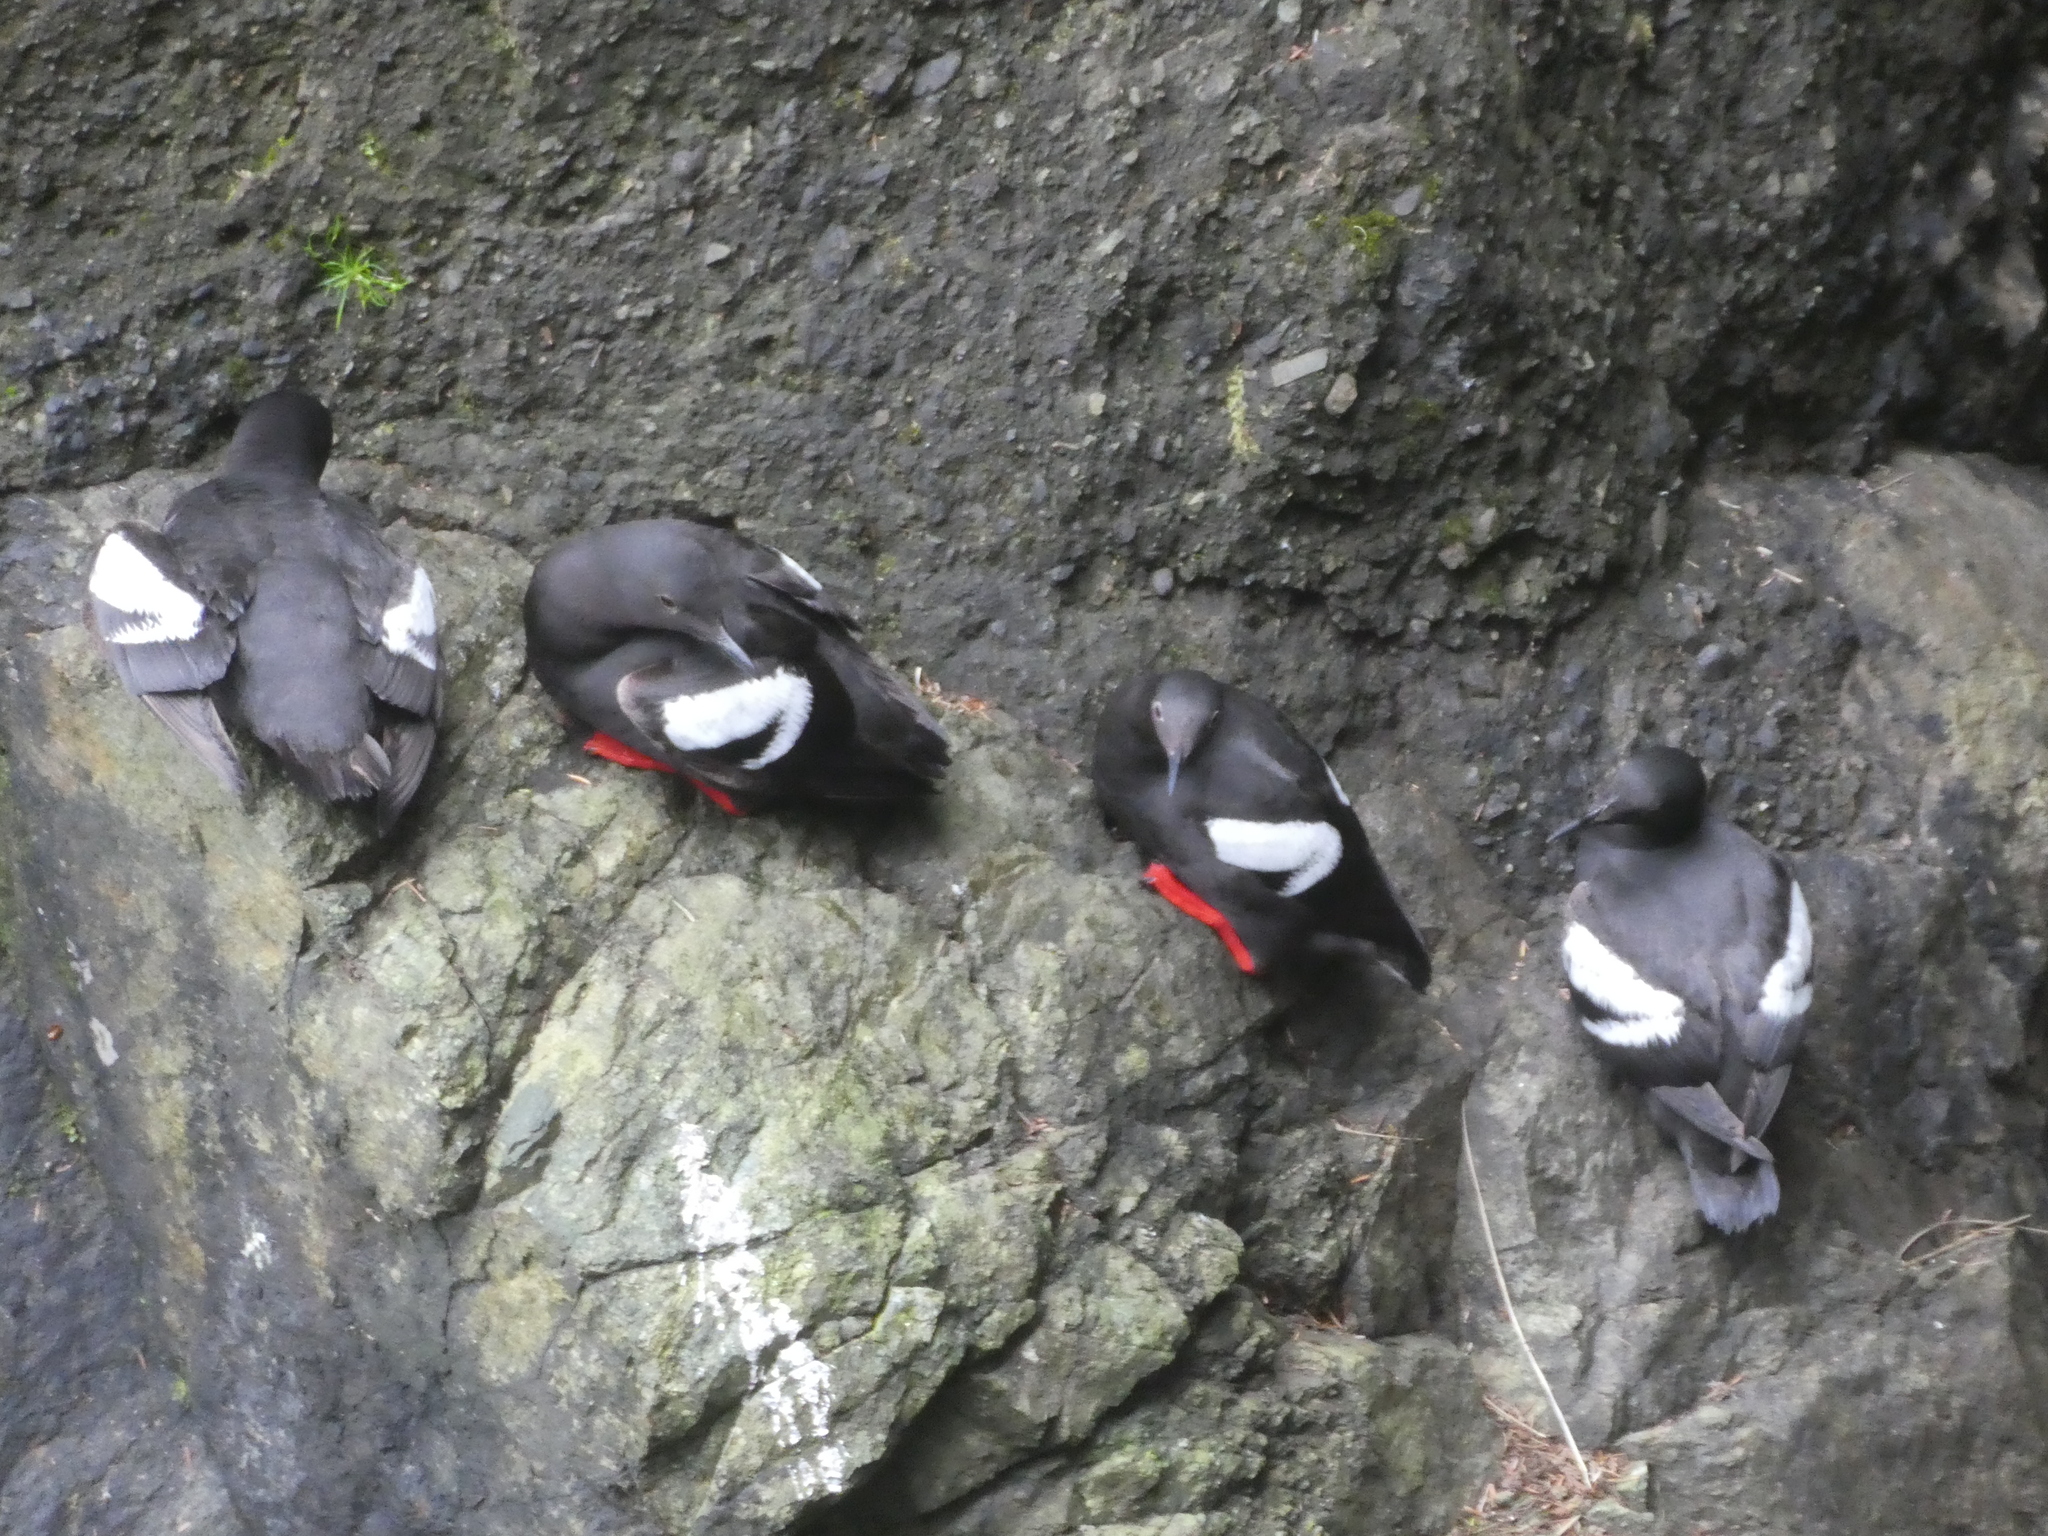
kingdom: Animalia
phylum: Chordata
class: Aves
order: Charadriiformes
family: Alcidae
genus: Cepphus
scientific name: Cepphus columba
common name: Pigeon guillemot
